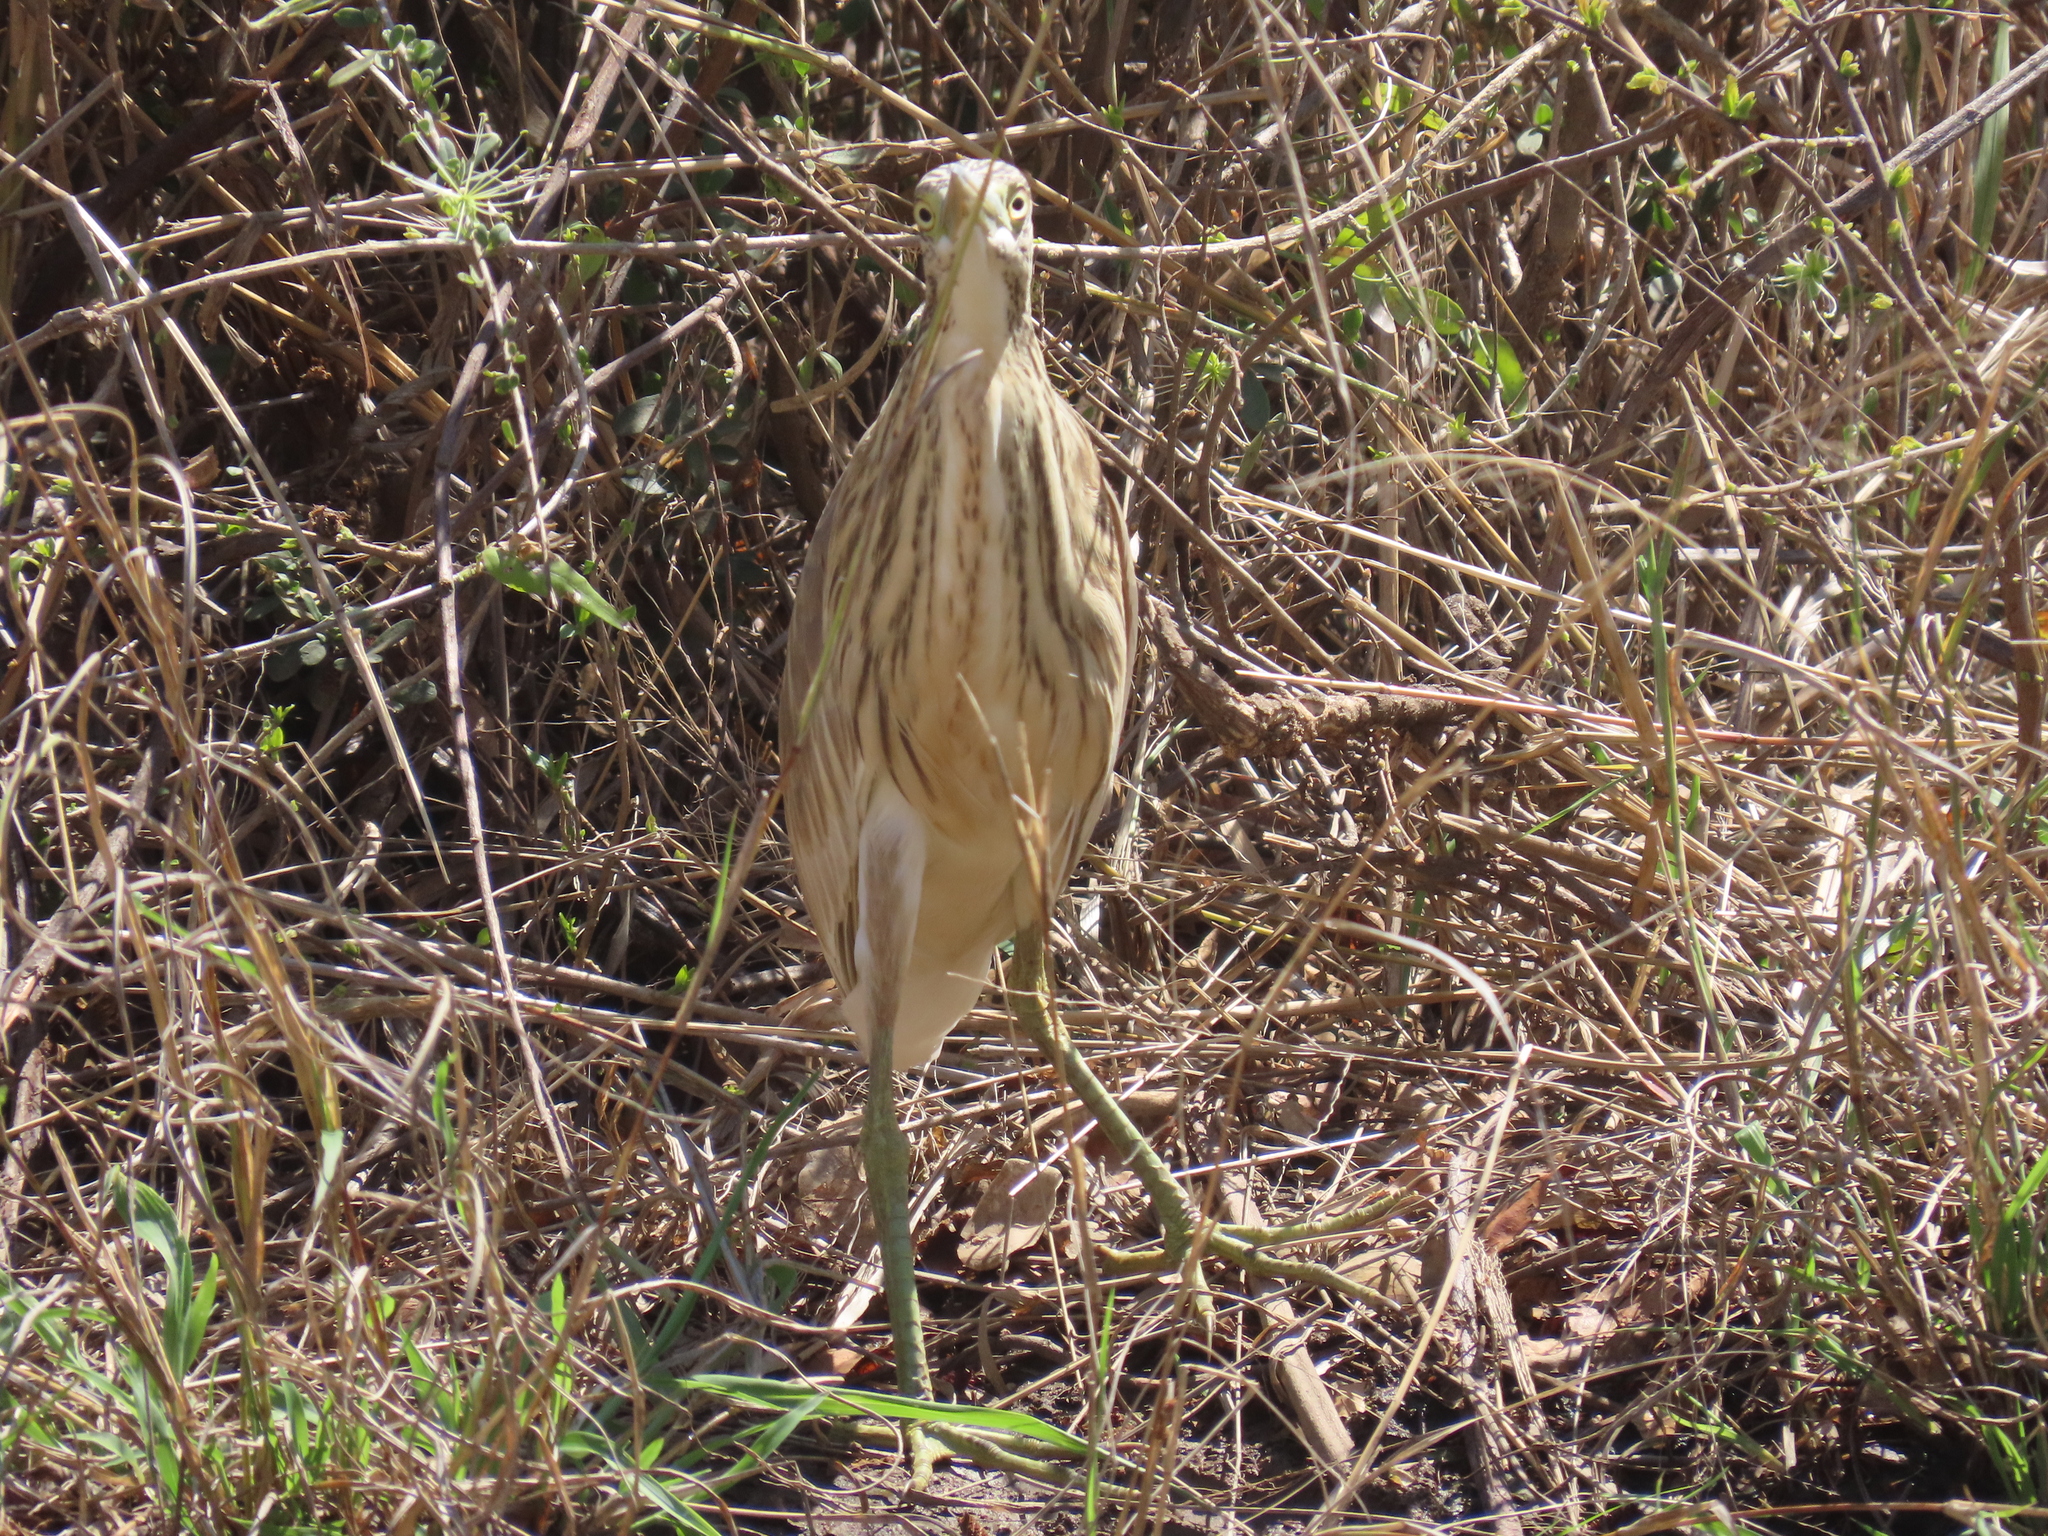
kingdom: Animalia
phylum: Chordata
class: Aves
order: Pelecaniformes
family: Ardeidae
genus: Ardeola
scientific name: Ardeola ralloides
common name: Squacco heron
